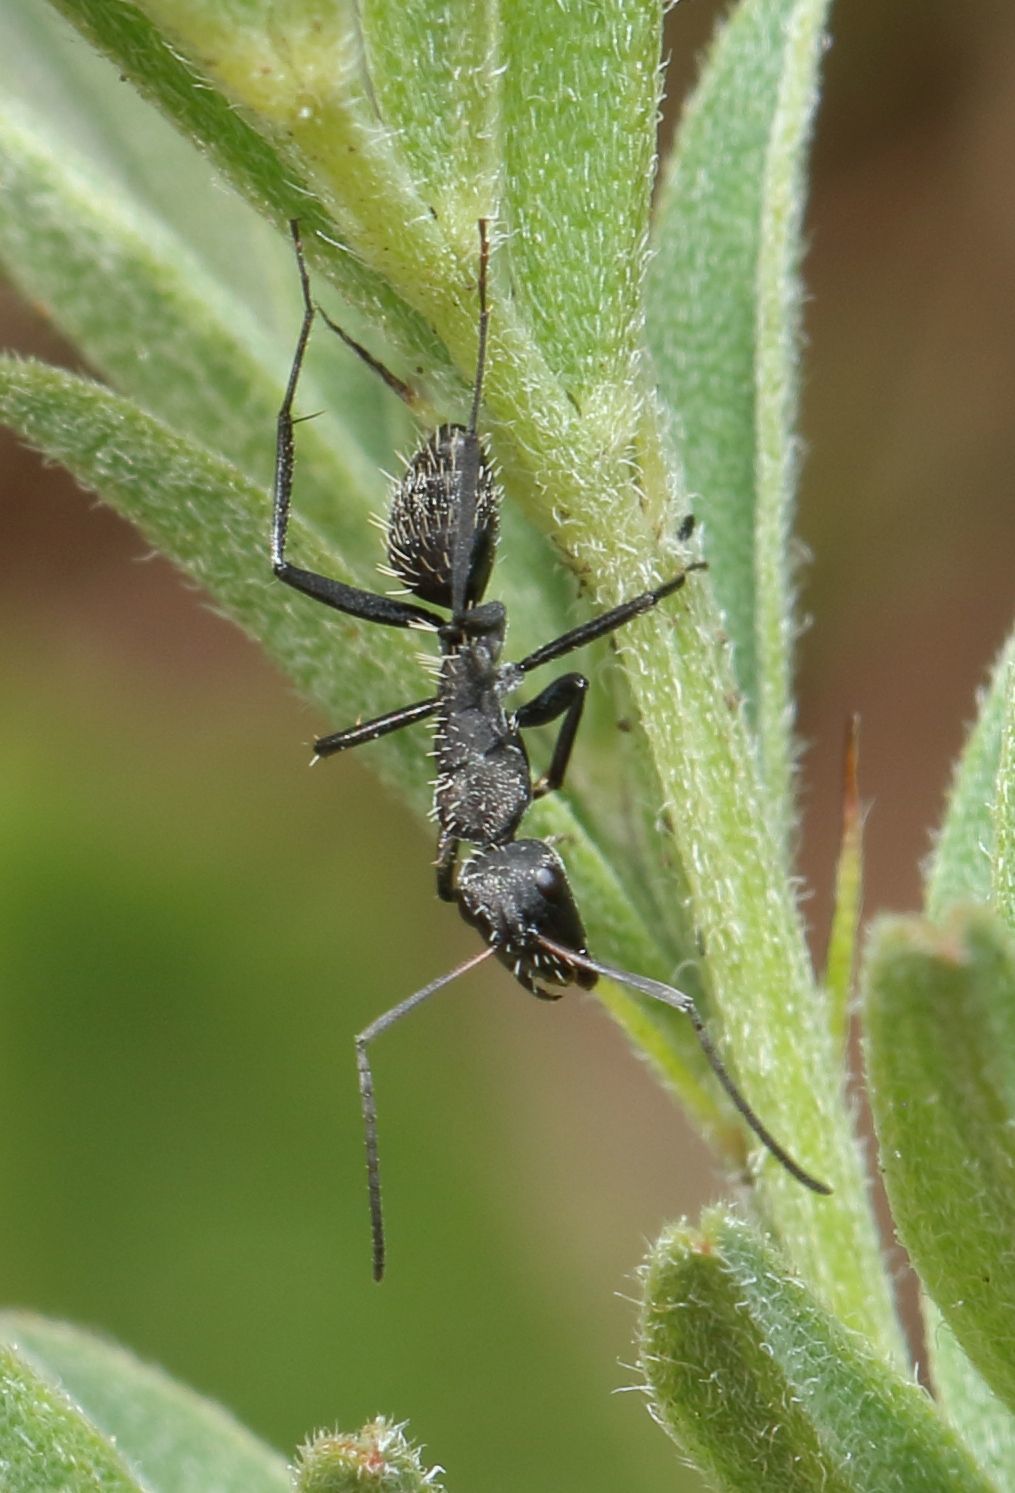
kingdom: Animalia
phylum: Arthropoda
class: Insecta
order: Hymenoptera
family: Formicidae
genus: Camponotus
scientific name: Camponotus niveosetosus
